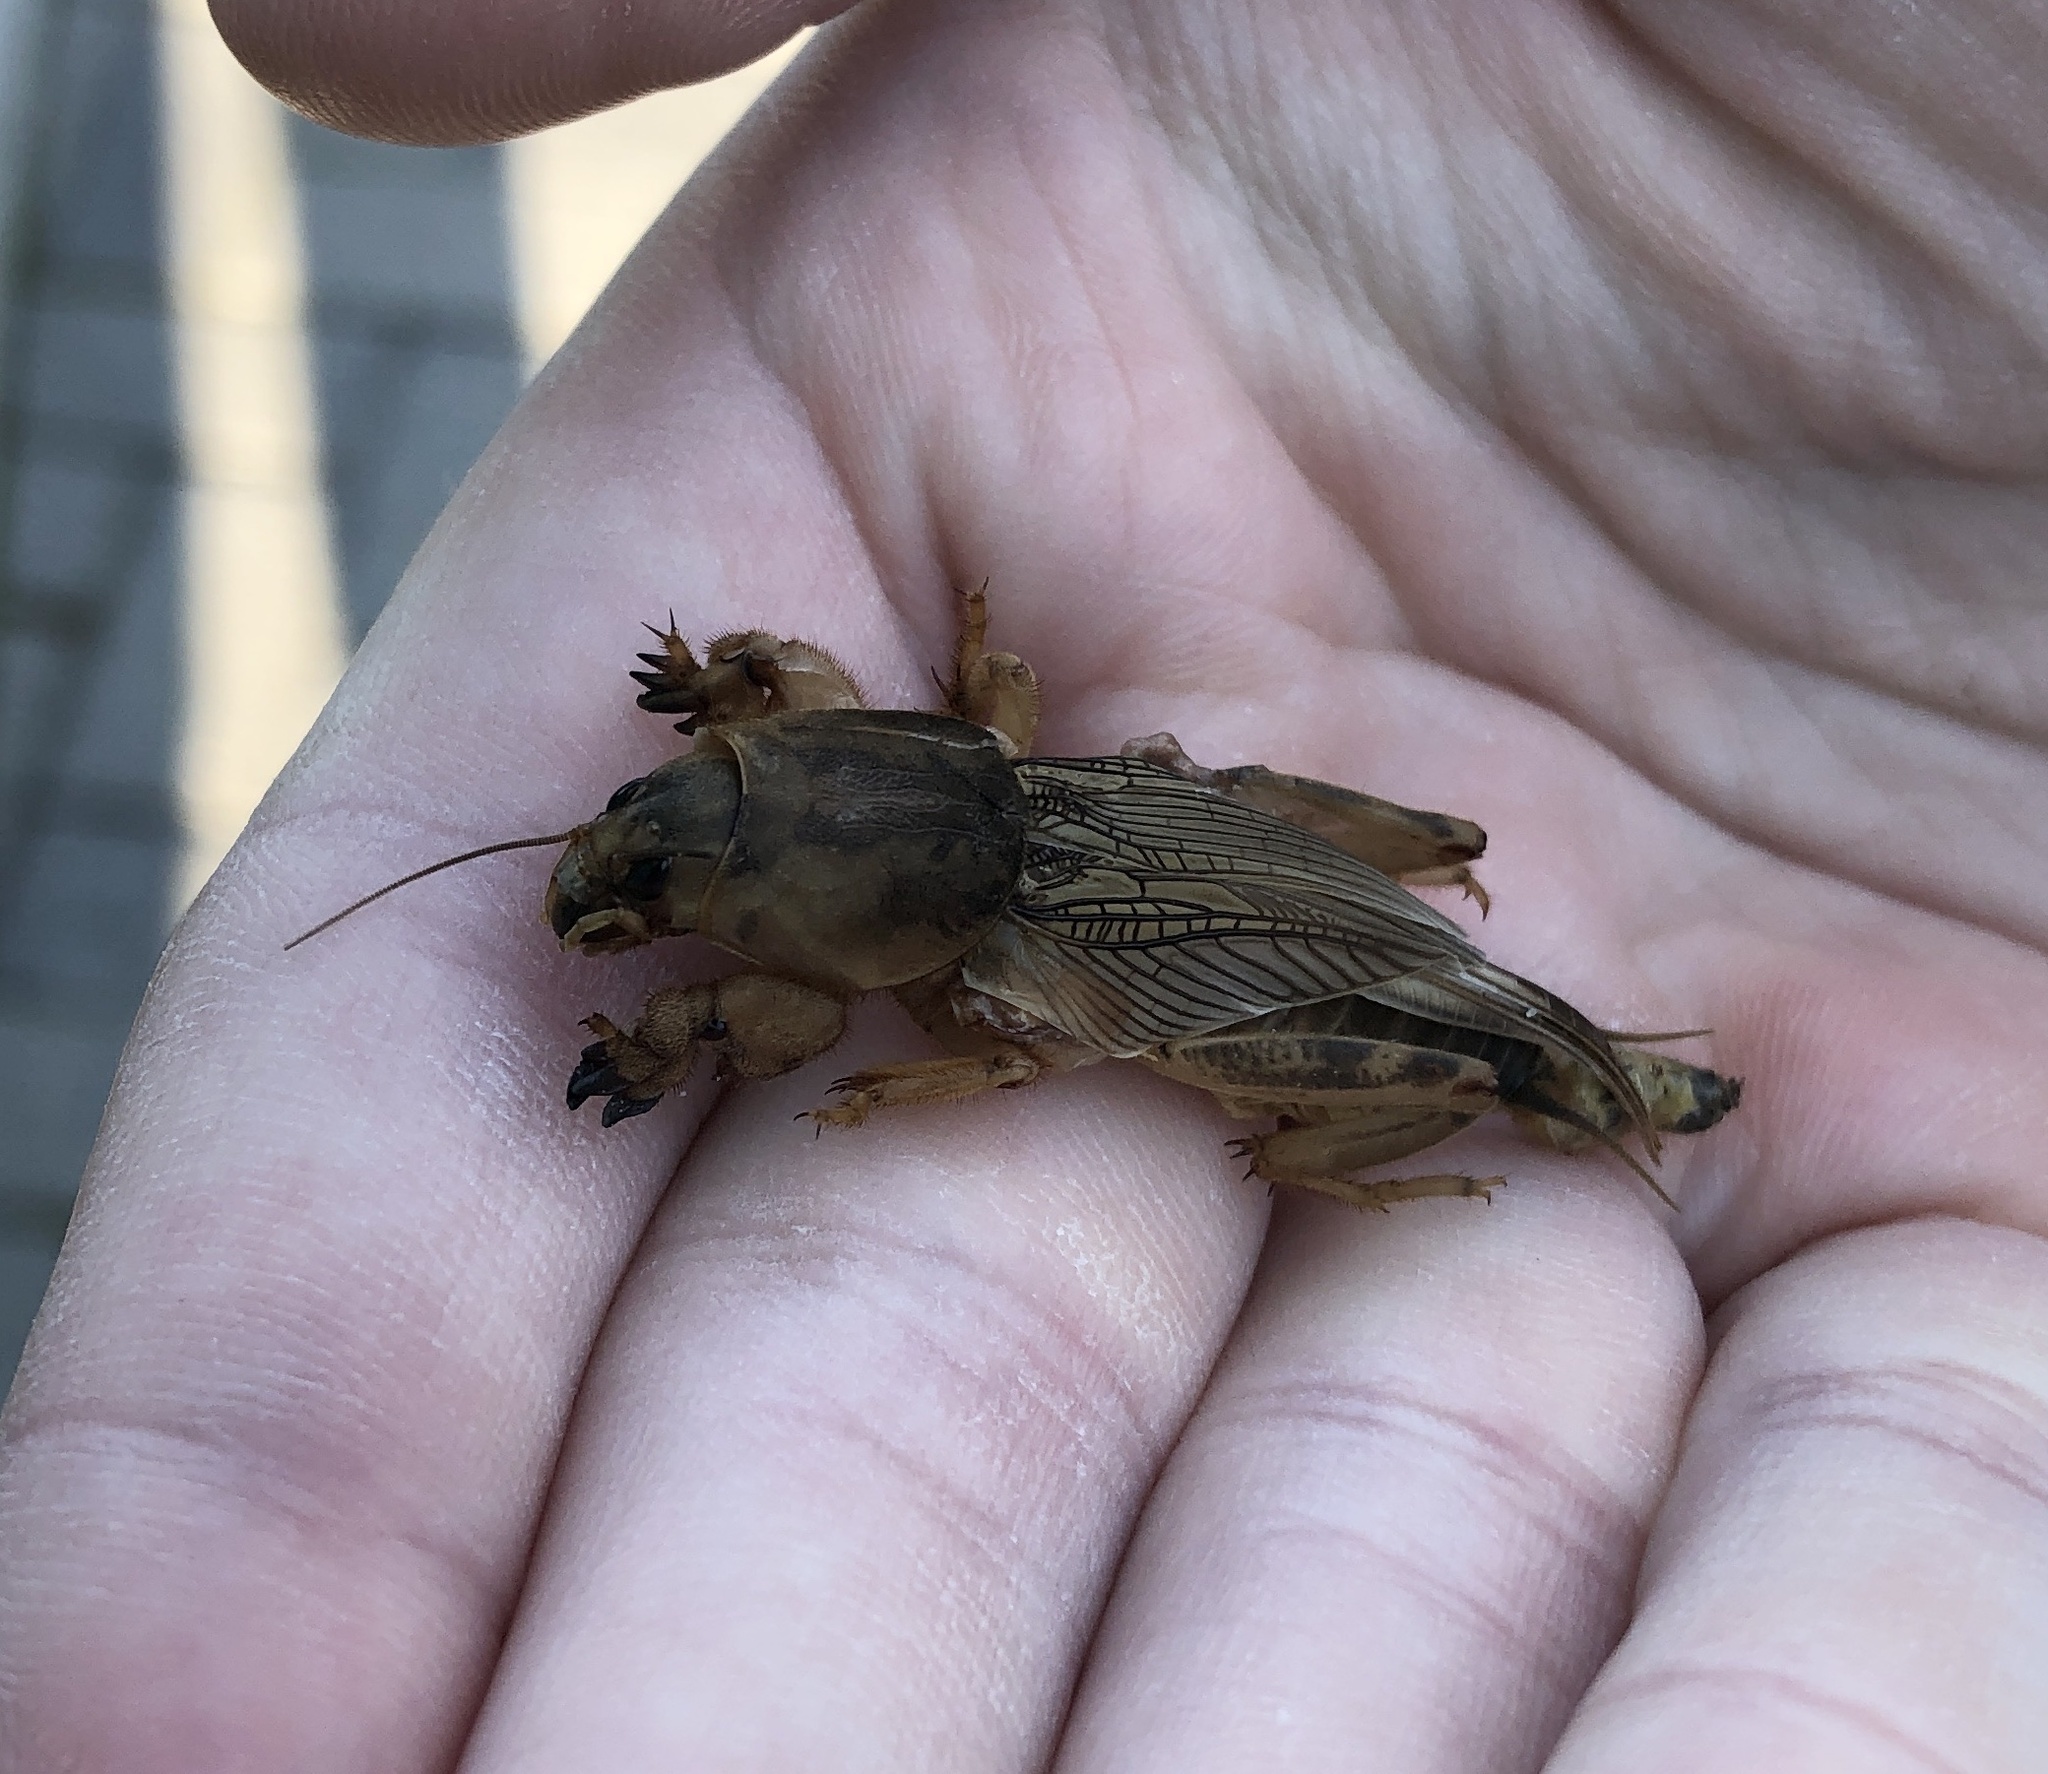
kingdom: Animalia
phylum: Arthropoda
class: Insecta
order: Orthoptera
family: Gryllotalpidae
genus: Neoscapteriscus
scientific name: Neoscapteriscus vicinus
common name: Tawny mole cricket
